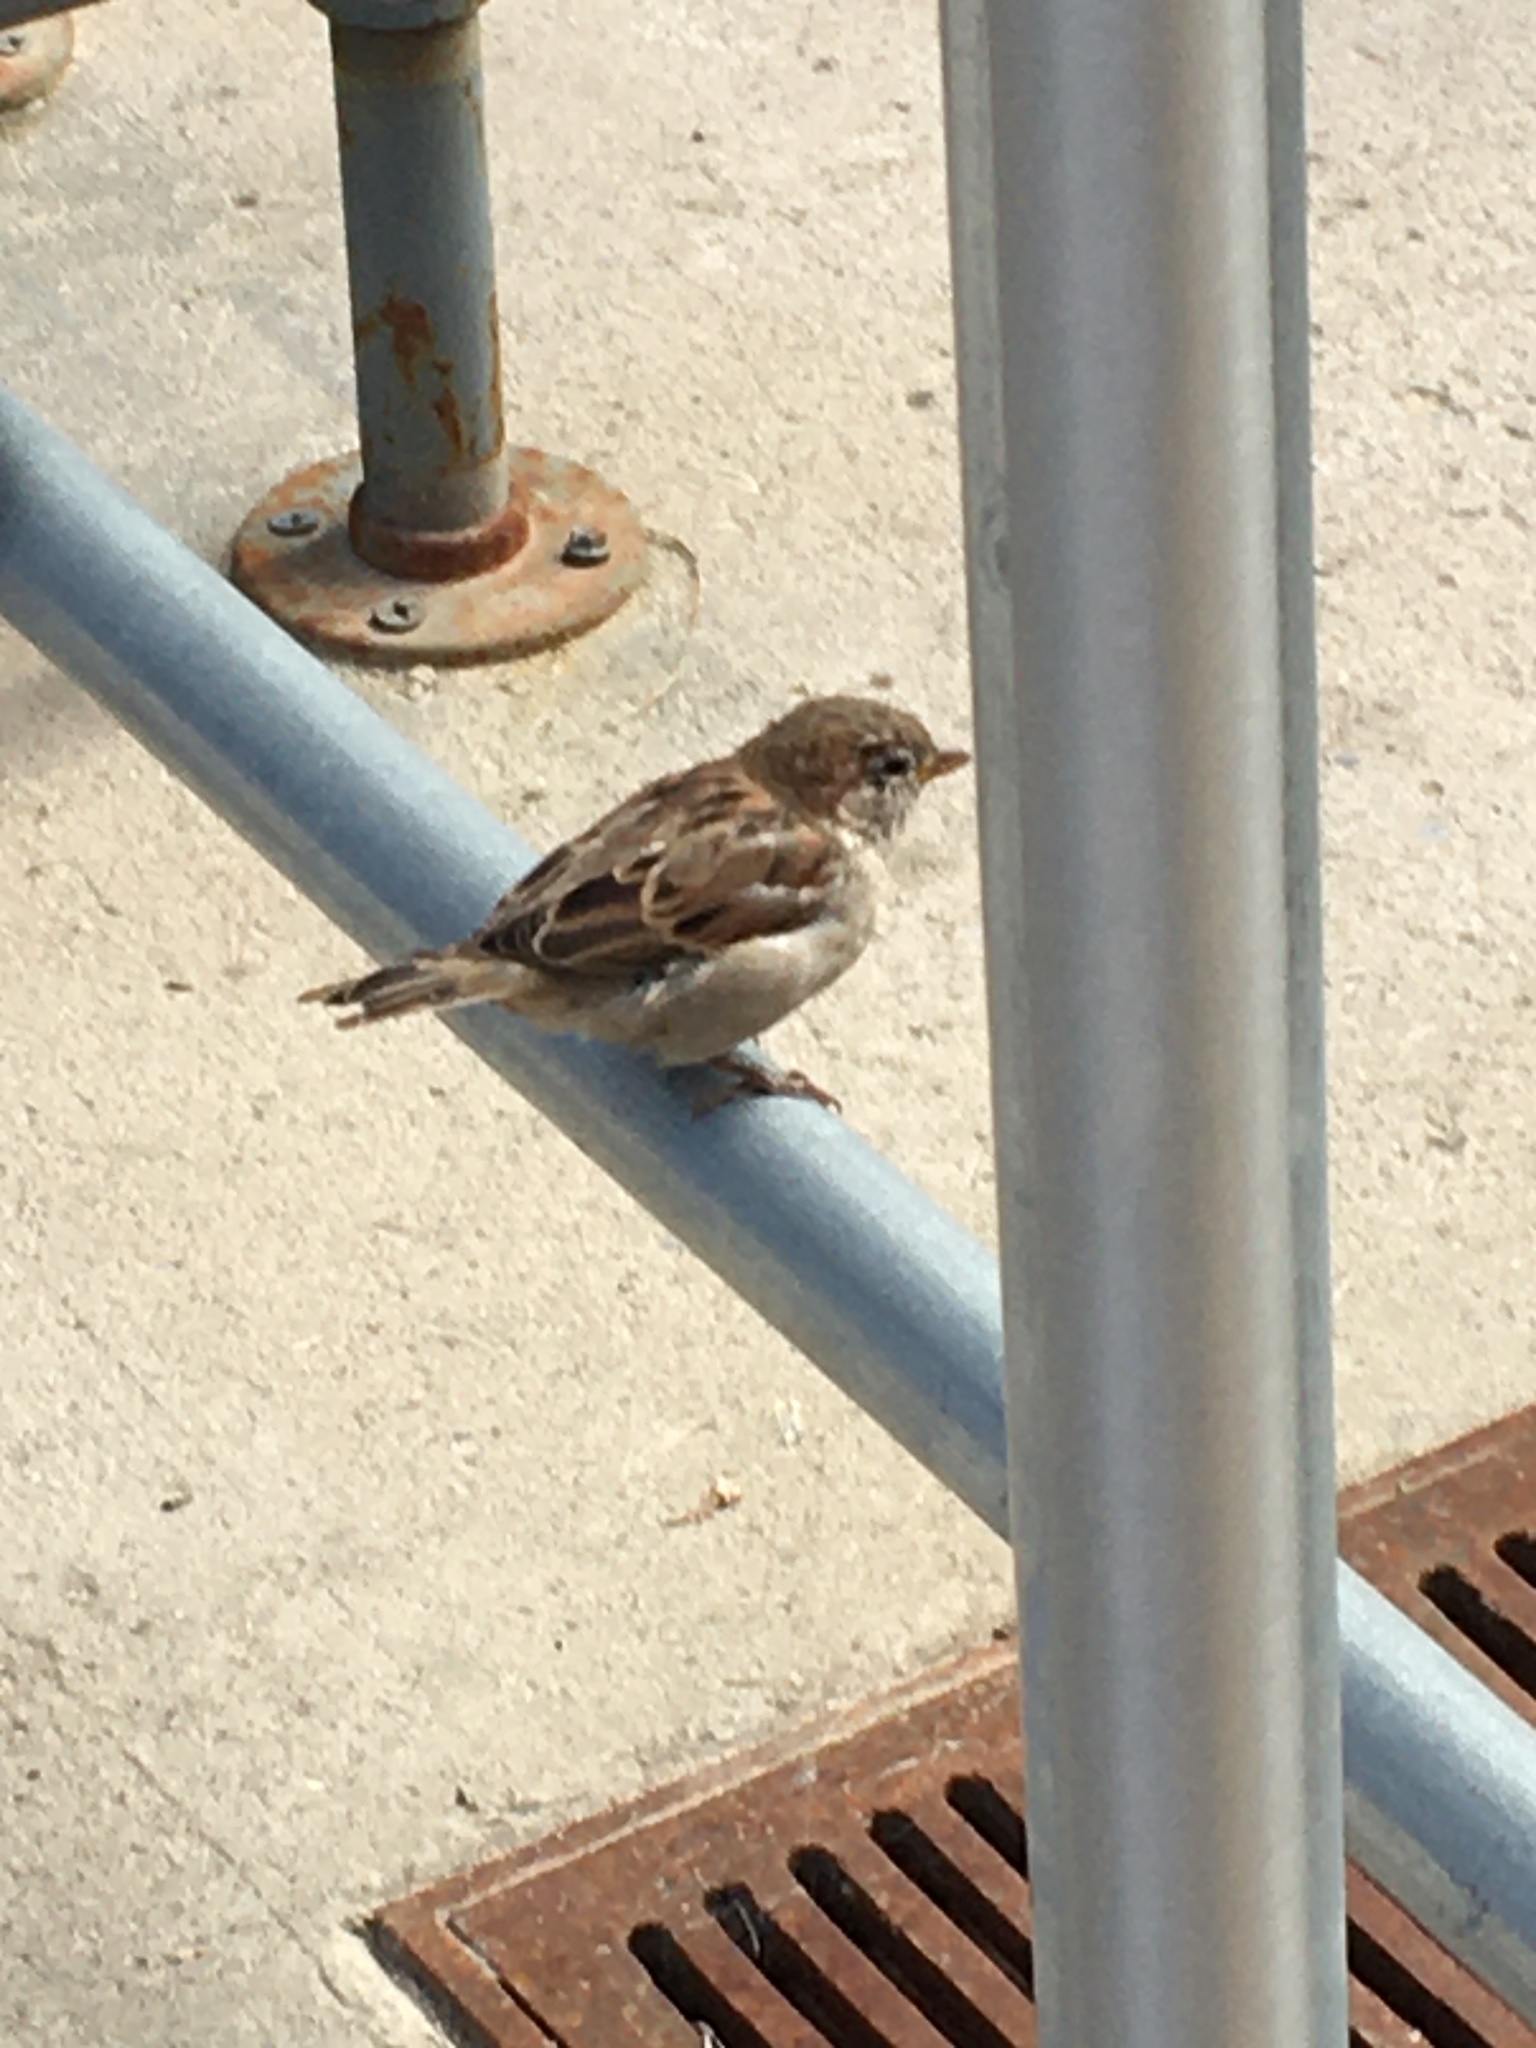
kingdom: Animalia
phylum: Chordata
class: Aves
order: Passeriformes
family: Passeridae
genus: Passer
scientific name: Passer domesticus
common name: House sparrow
